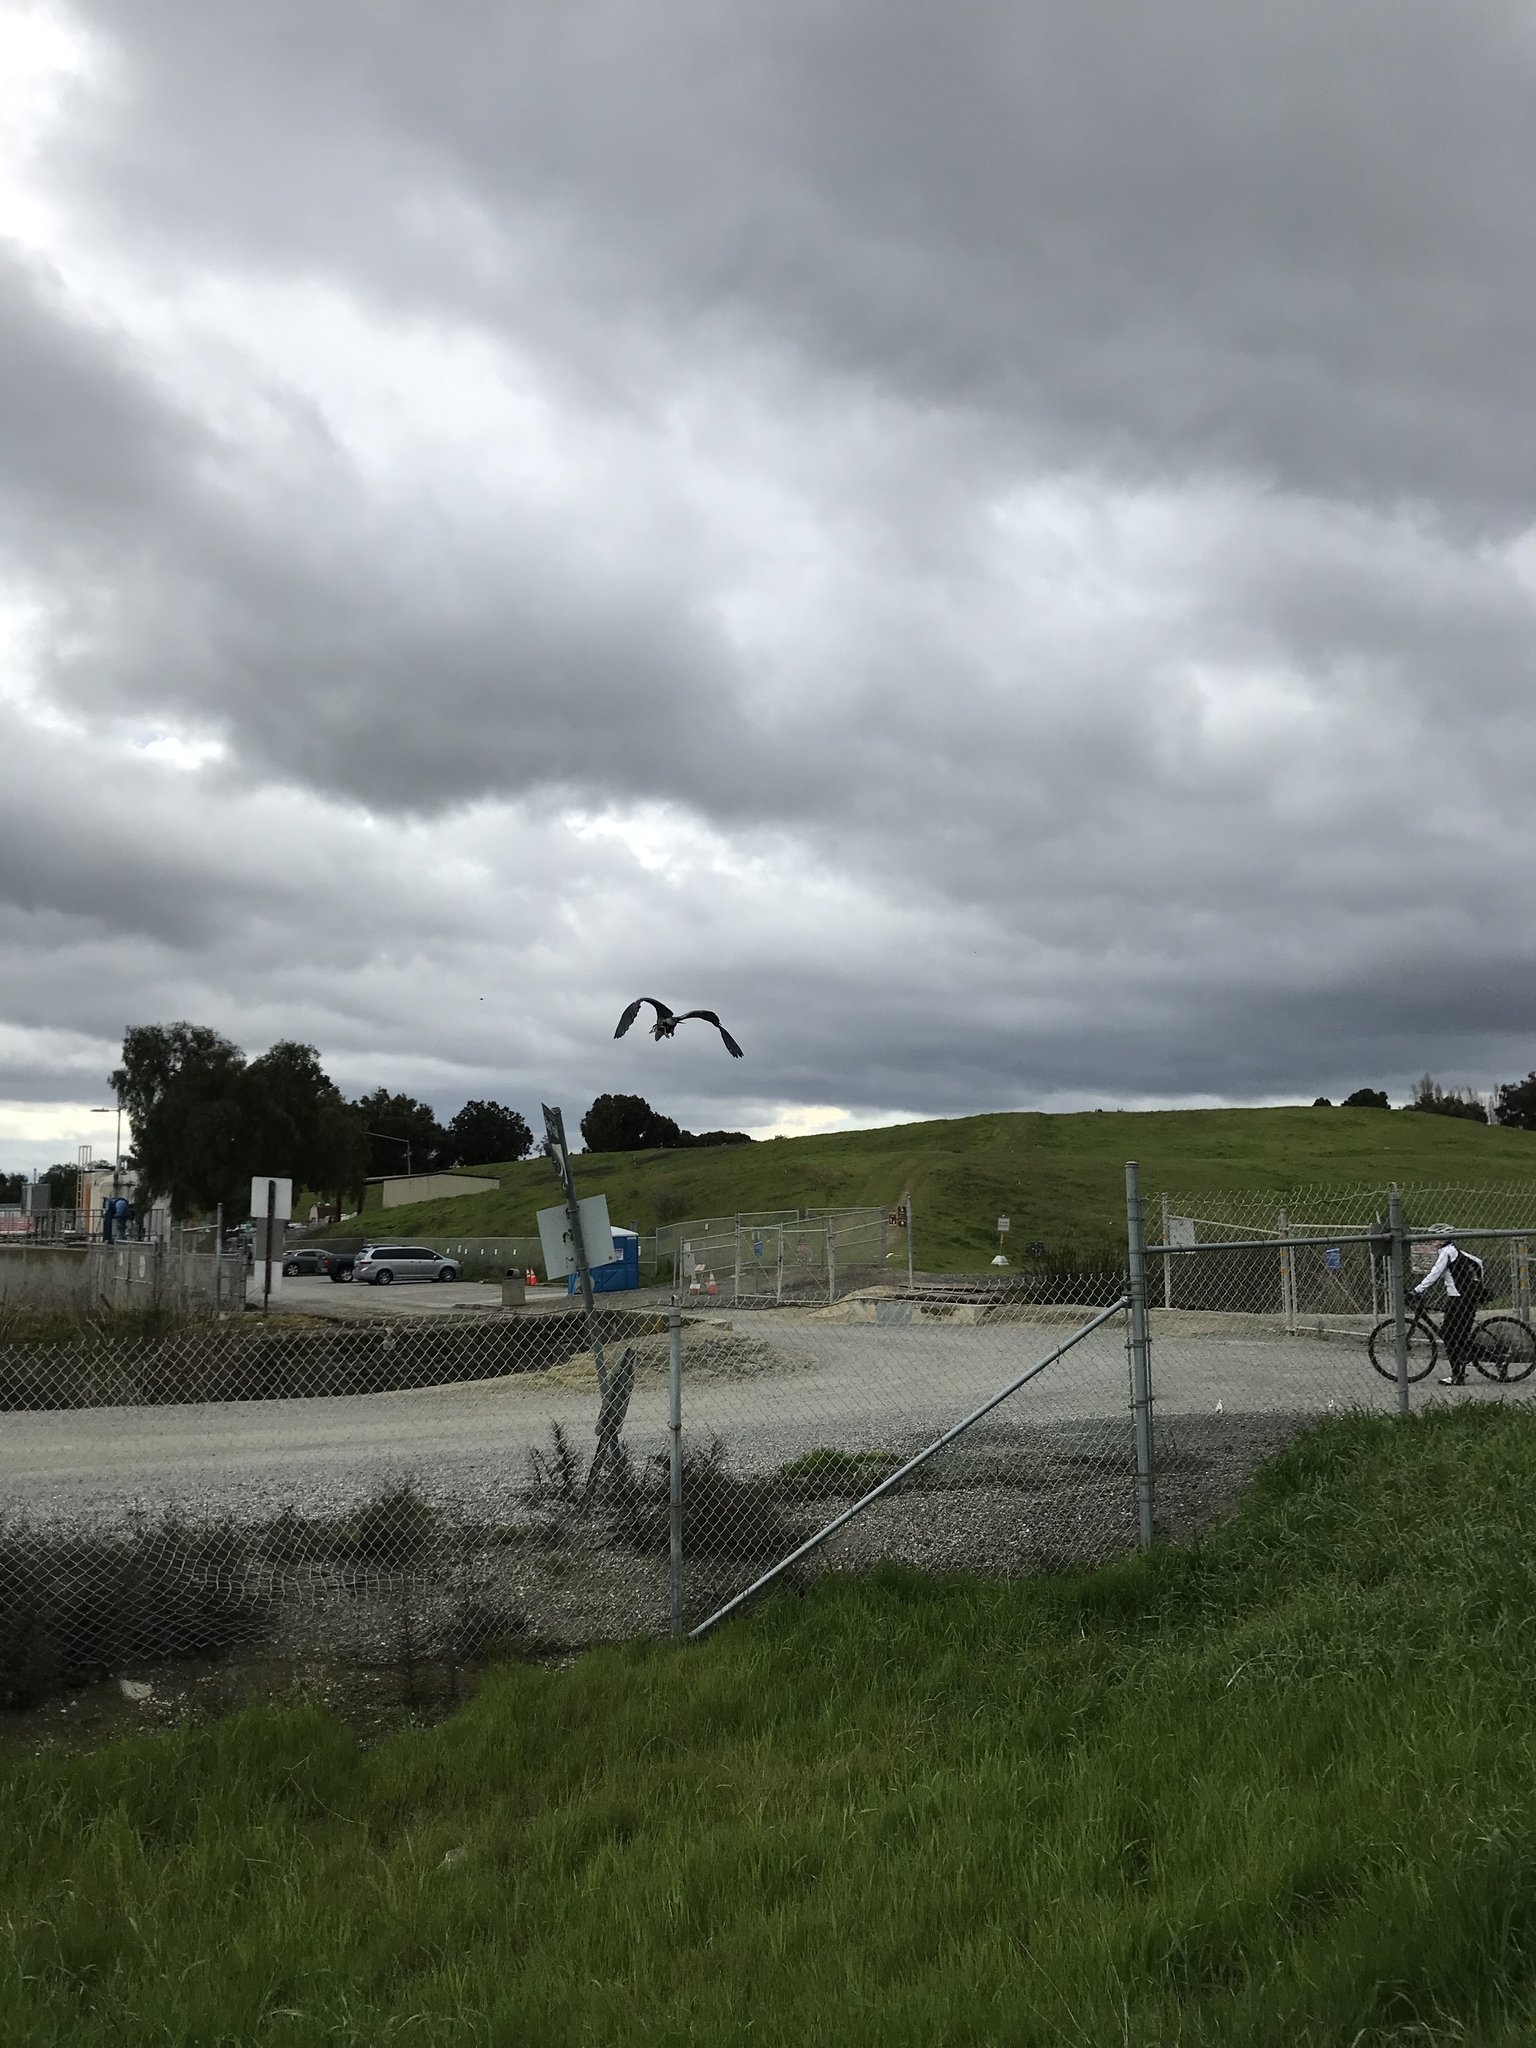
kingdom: Animalia
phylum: Chordata
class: Aves
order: Pelecaniformes
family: Ardeidae
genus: Ardea
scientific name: Ardea herodias
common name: Great blue heron
